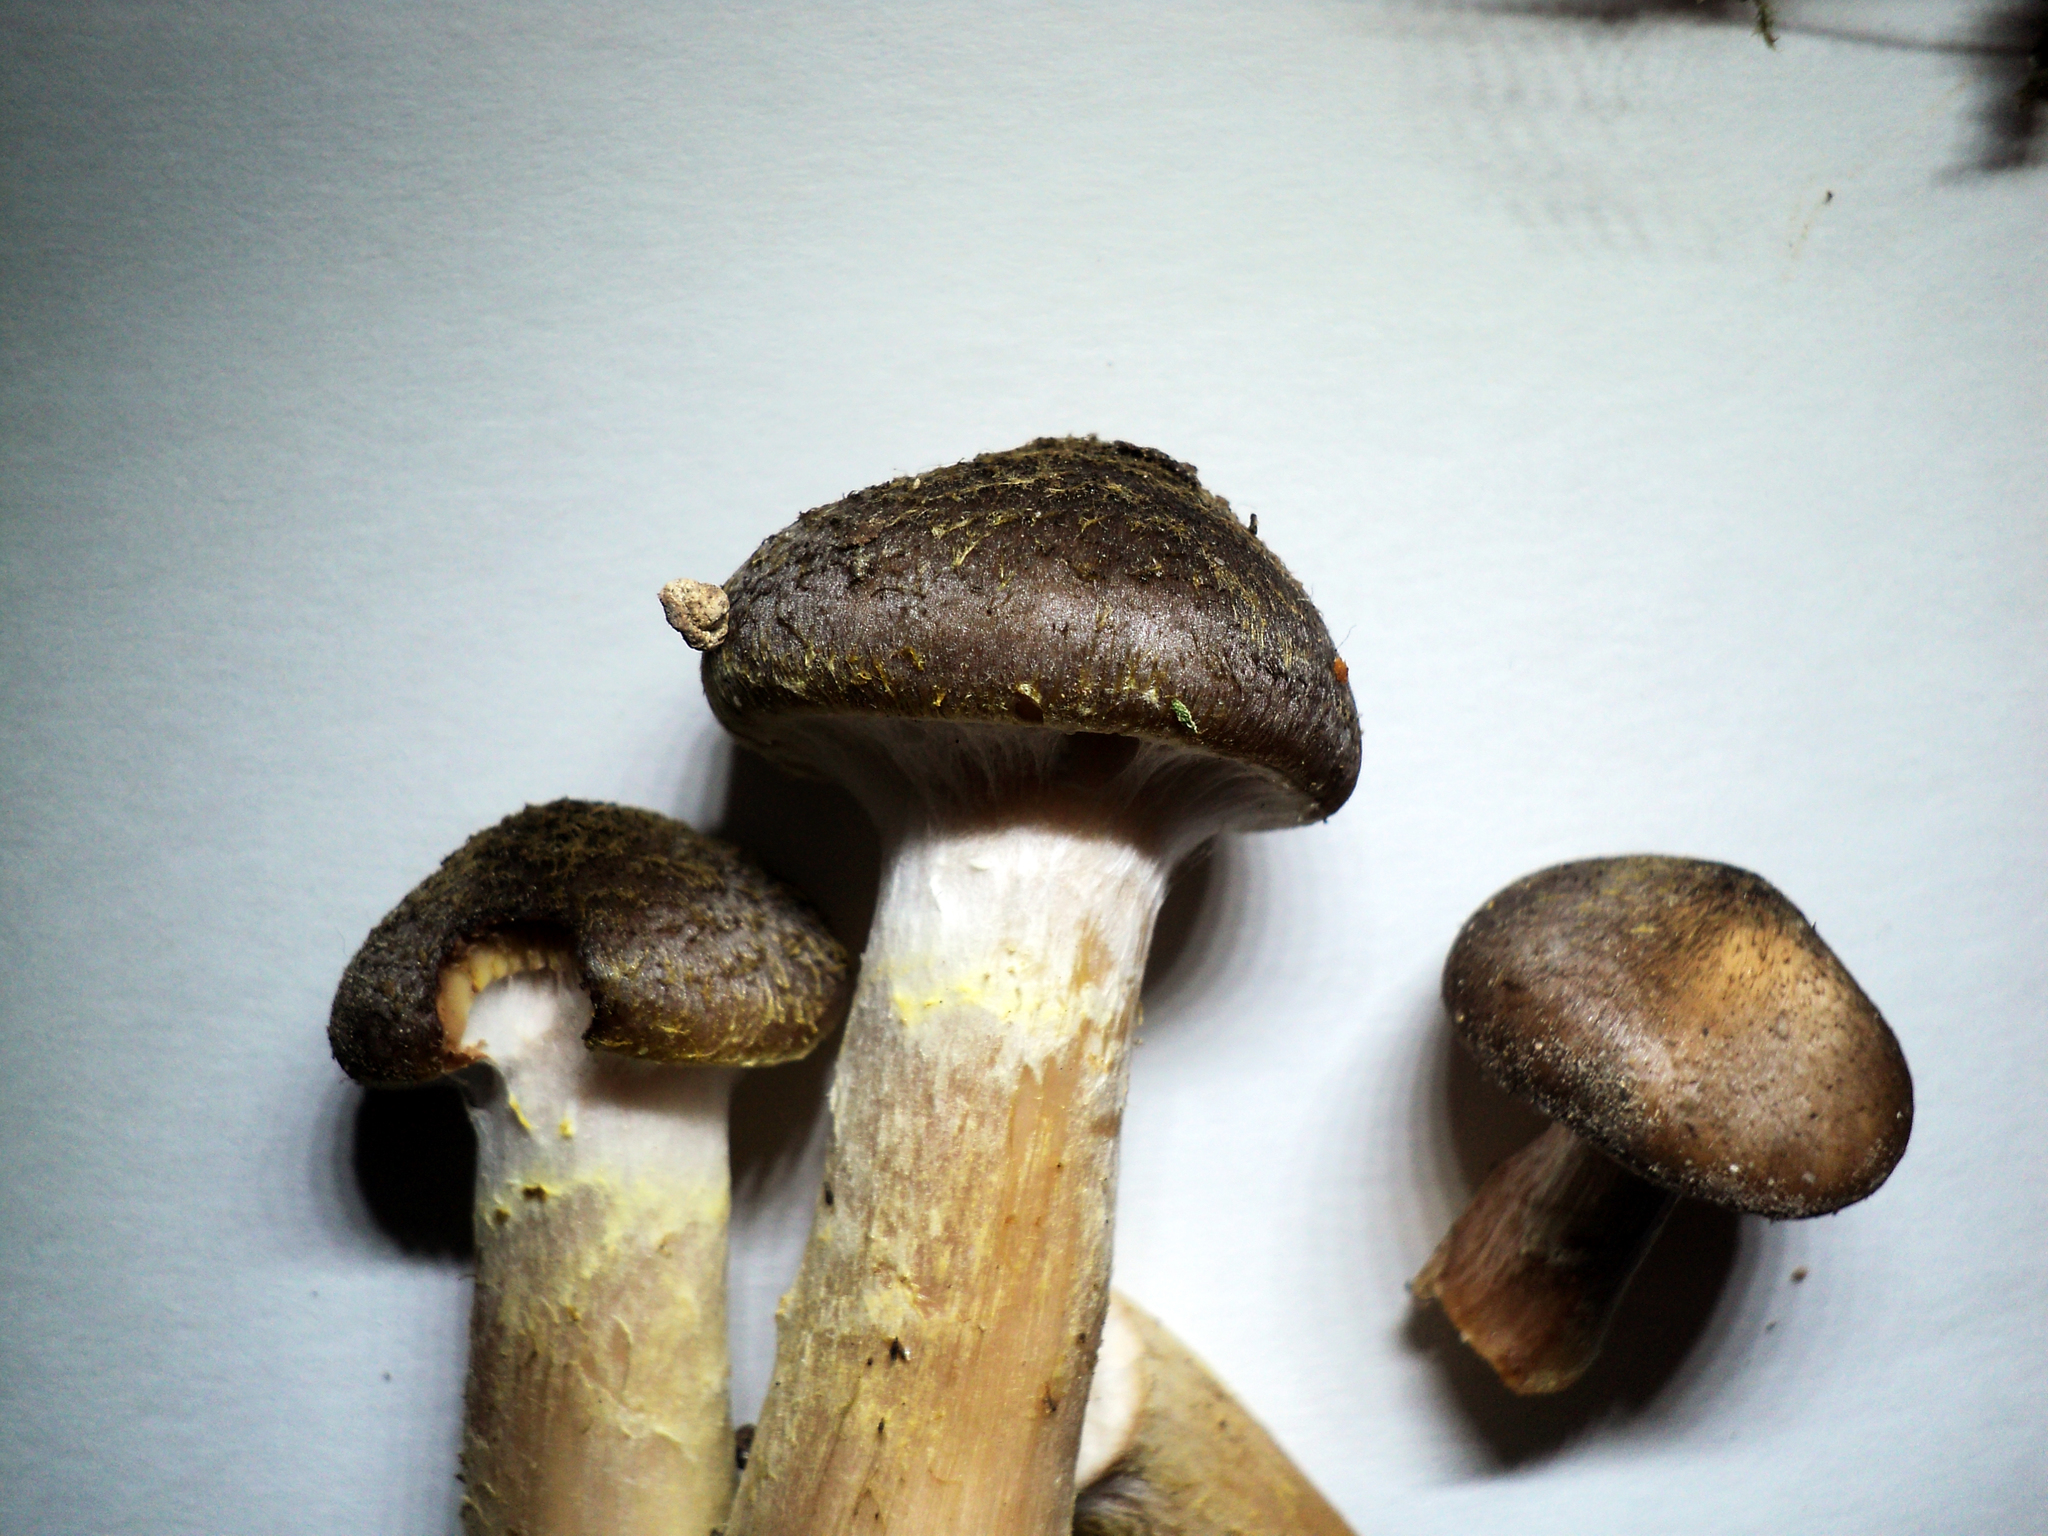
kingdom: Fungi
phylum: Basidiomycota
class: Agaricomycetes
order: Agaricales
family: Physalacriaceae
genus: Armillaria
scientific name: Armillaria sinapina
